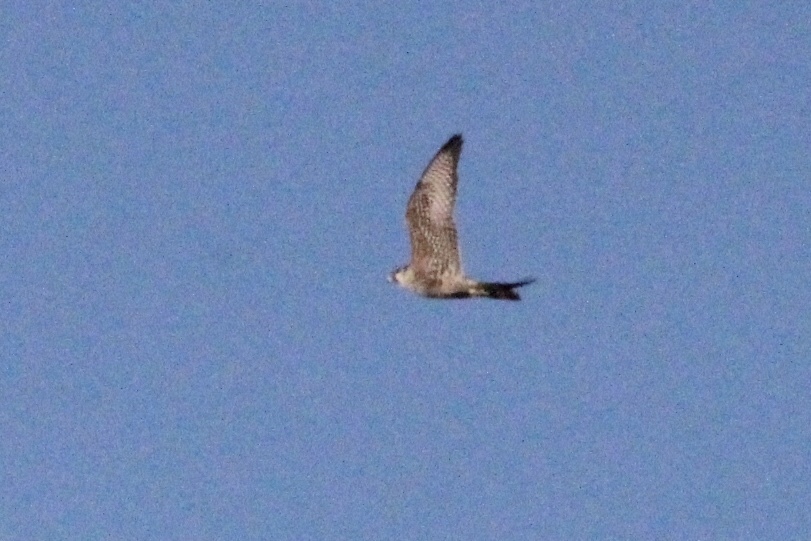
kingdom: Animalia
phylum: Chordata
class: Aves
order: Falconiformes
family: Falconidae
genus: Falco
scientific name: Falco peregrinus
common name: Peregrine falcon
